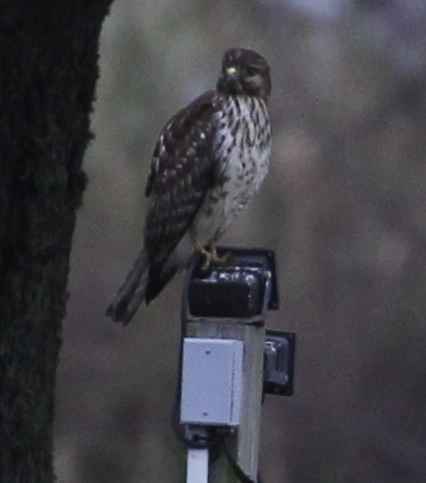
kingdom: Animalia
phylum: Chordata
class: Aves
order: Accipitriformes
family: Accipitridae
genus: Buteo
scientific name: Buteo lineatus
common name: Red-shouldered hawk
